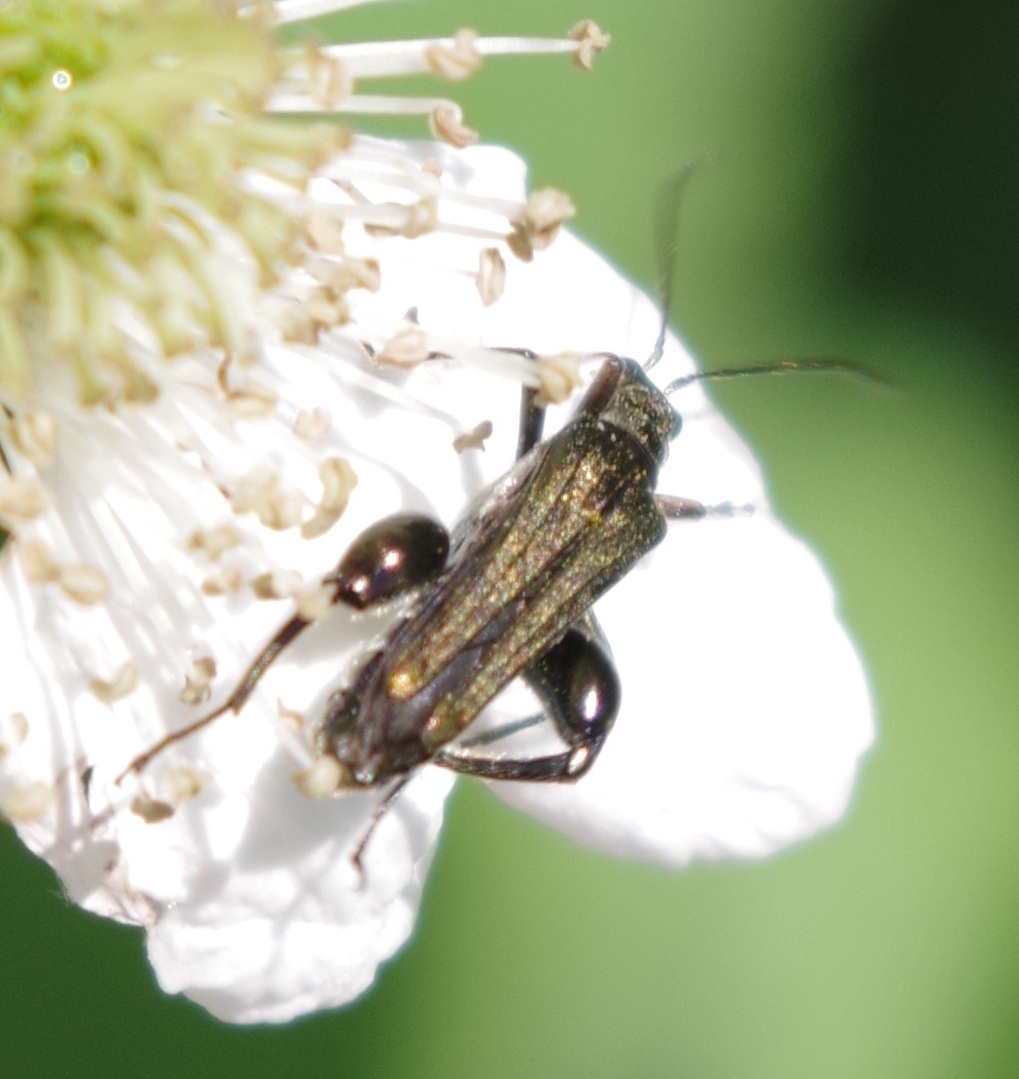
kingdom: Animalia
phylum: Arthropoda
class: Insecta
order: Coleoptera
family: Oedemeridae
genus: Oedemera
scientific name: Oedemera flavipes
